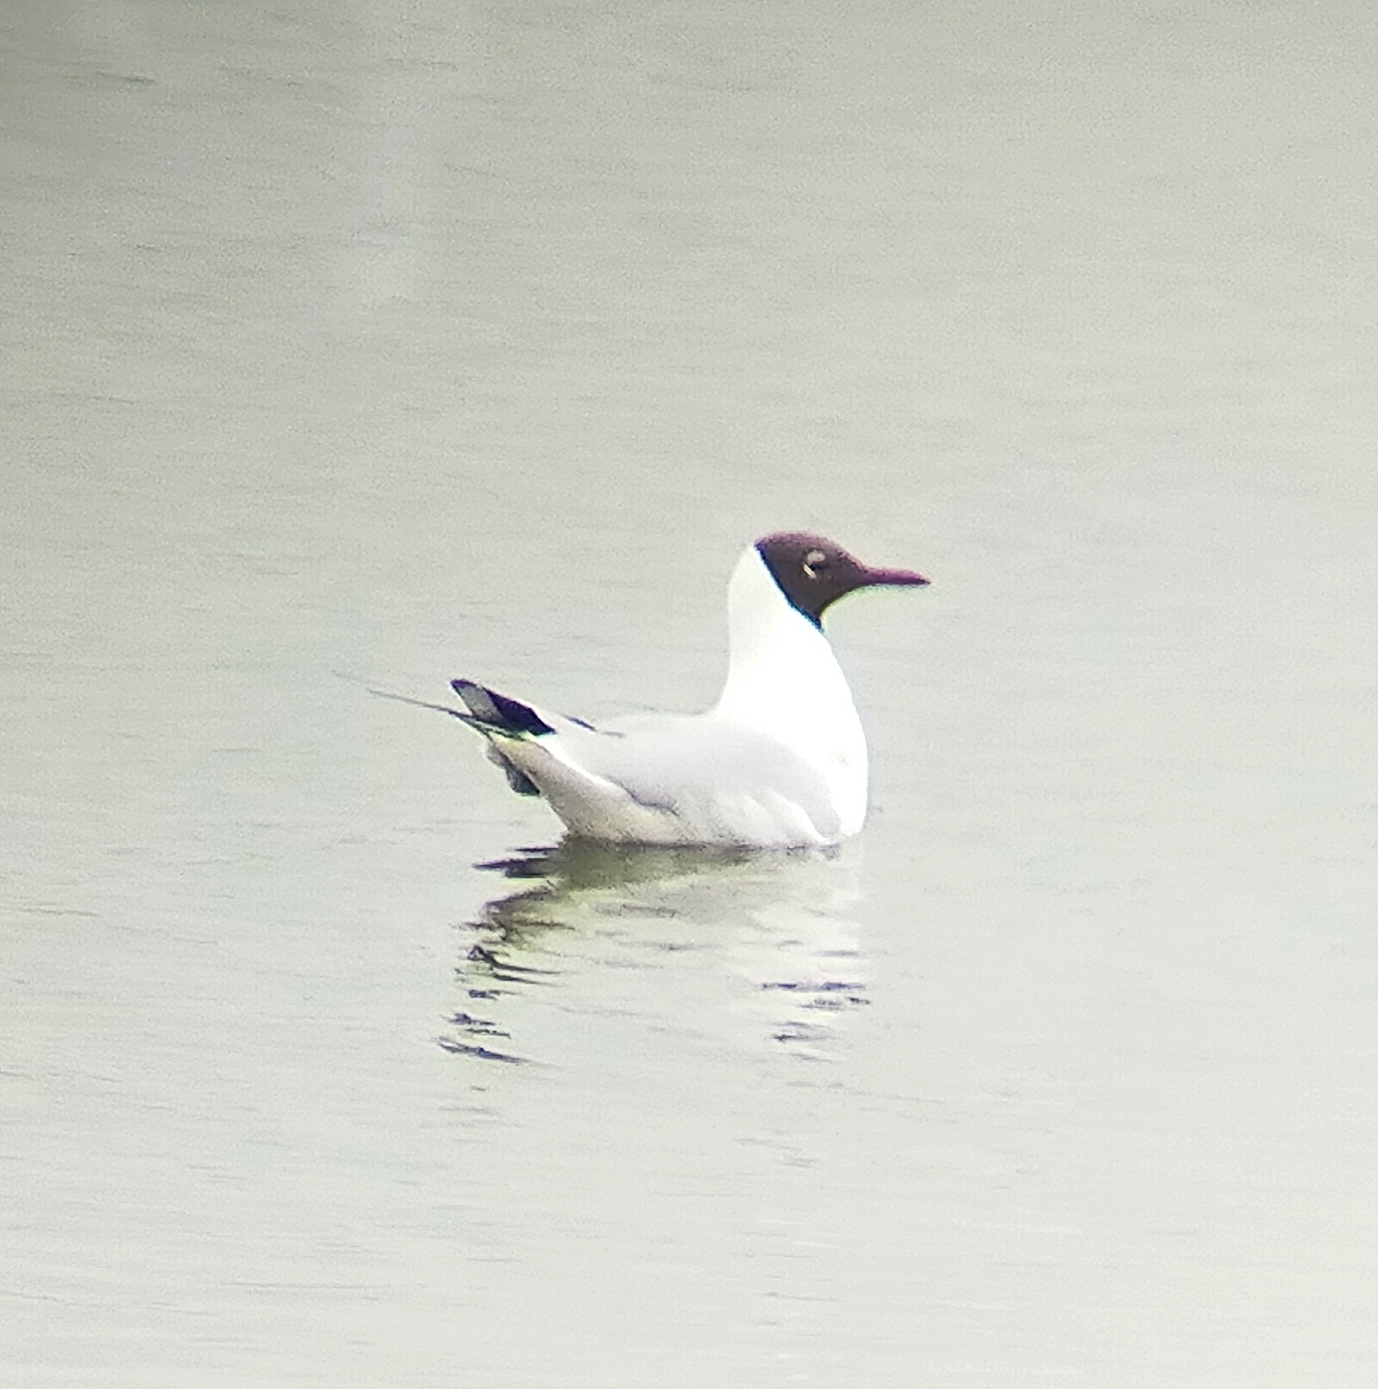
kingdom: Animalia
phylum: Chordata
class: Aves
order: Charadriiformes
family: Laridae
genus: Chroicocephalus
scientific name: Chroicocephalus ridibundus
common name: Black-headed gull
